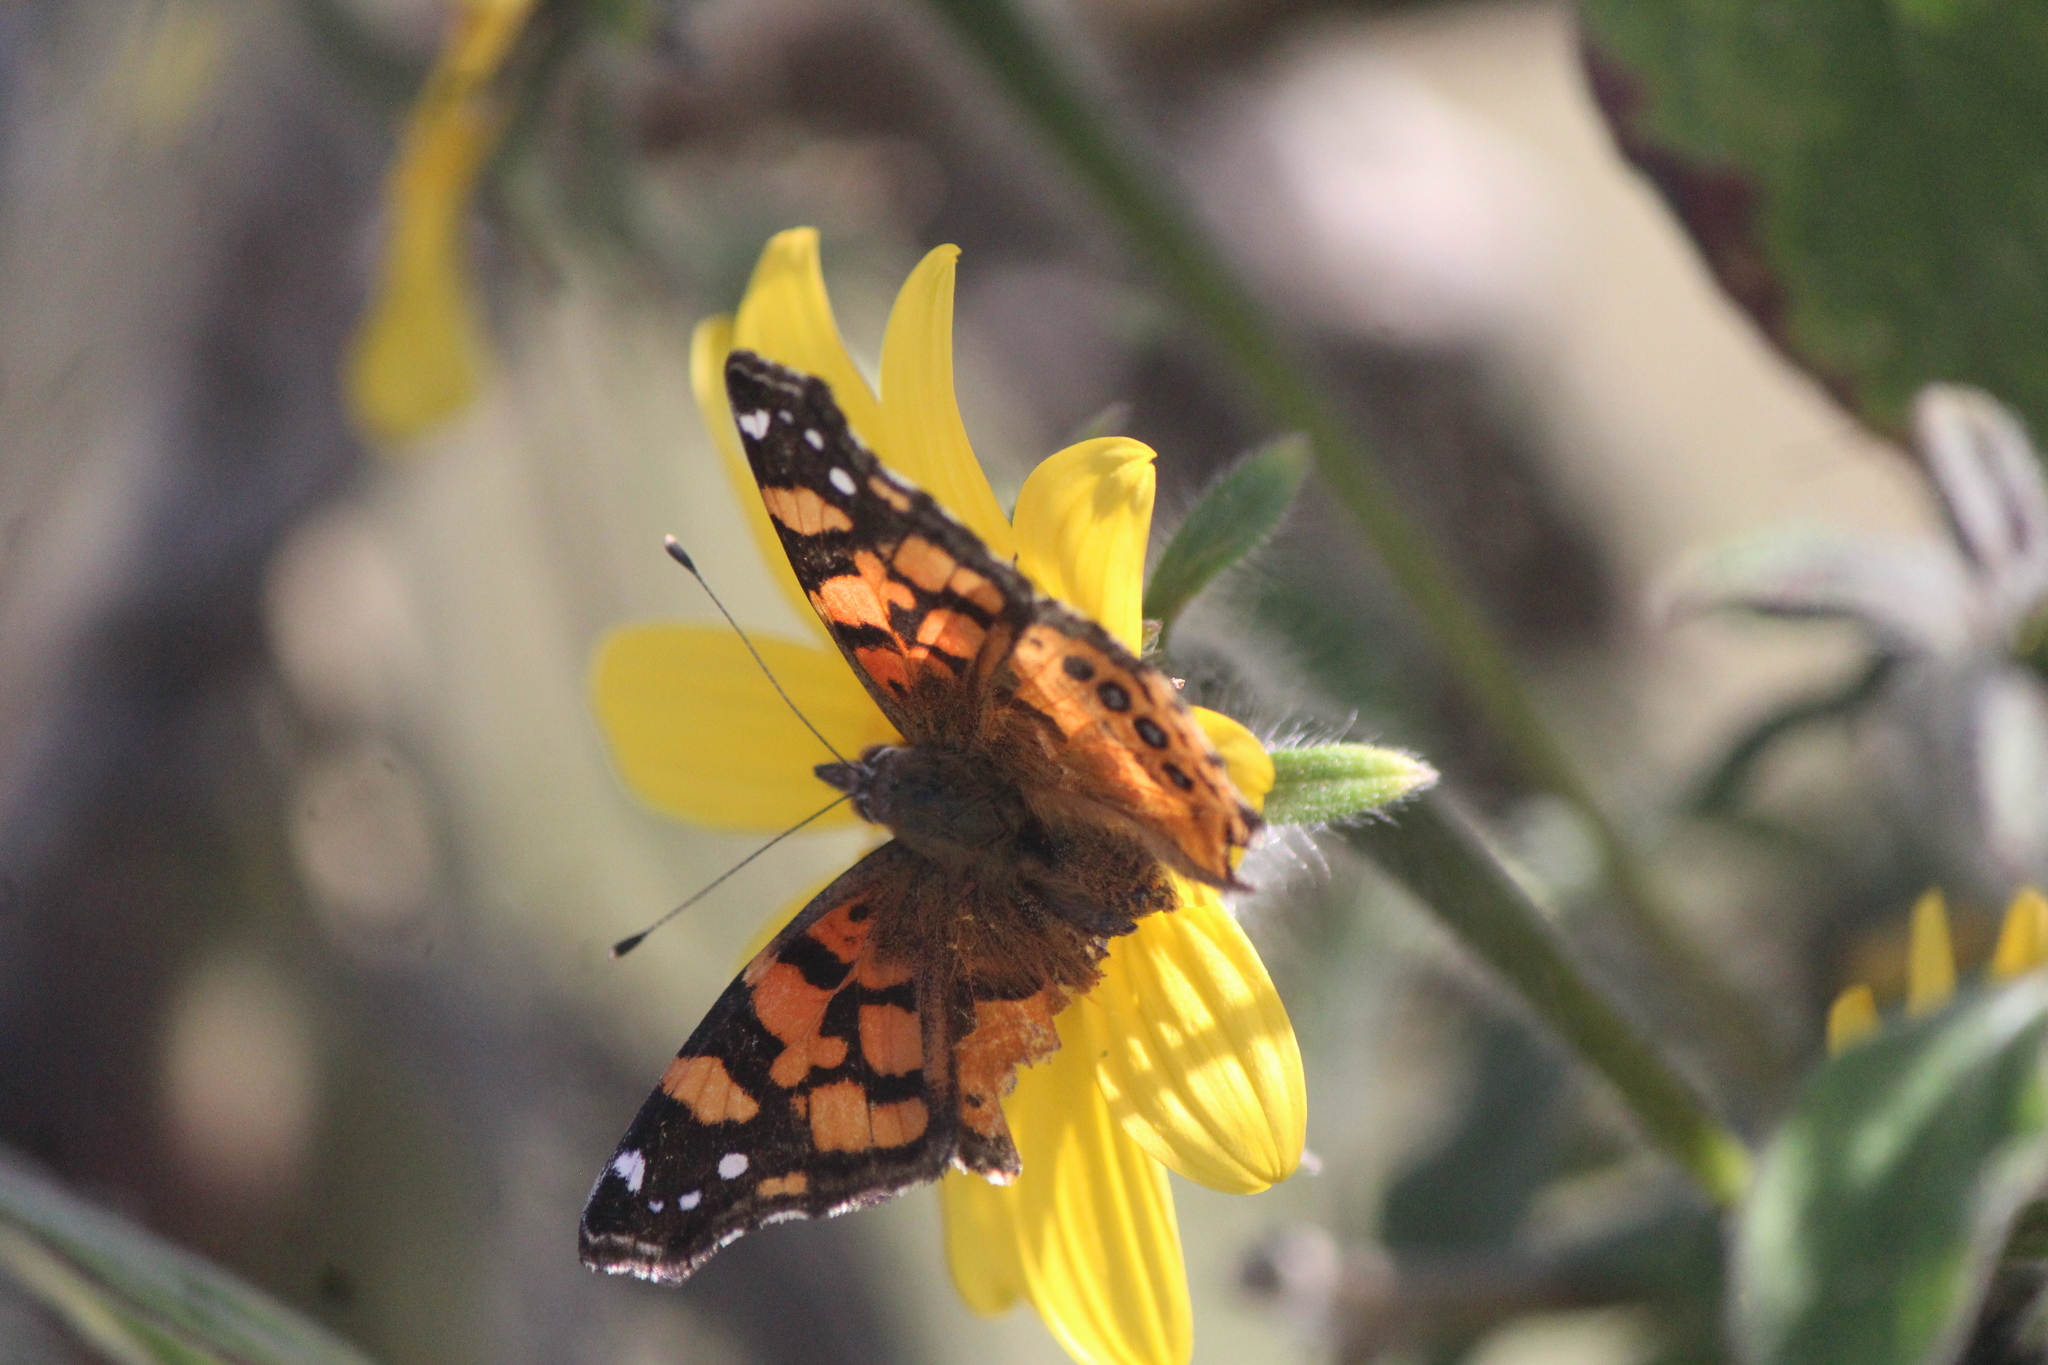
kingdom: Animalia
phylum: Arthropoda
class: Insecta
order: Lepidoptera
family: Nymphalidae
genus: Vanessa
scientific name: Vanessa annabella
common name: West coast lady
